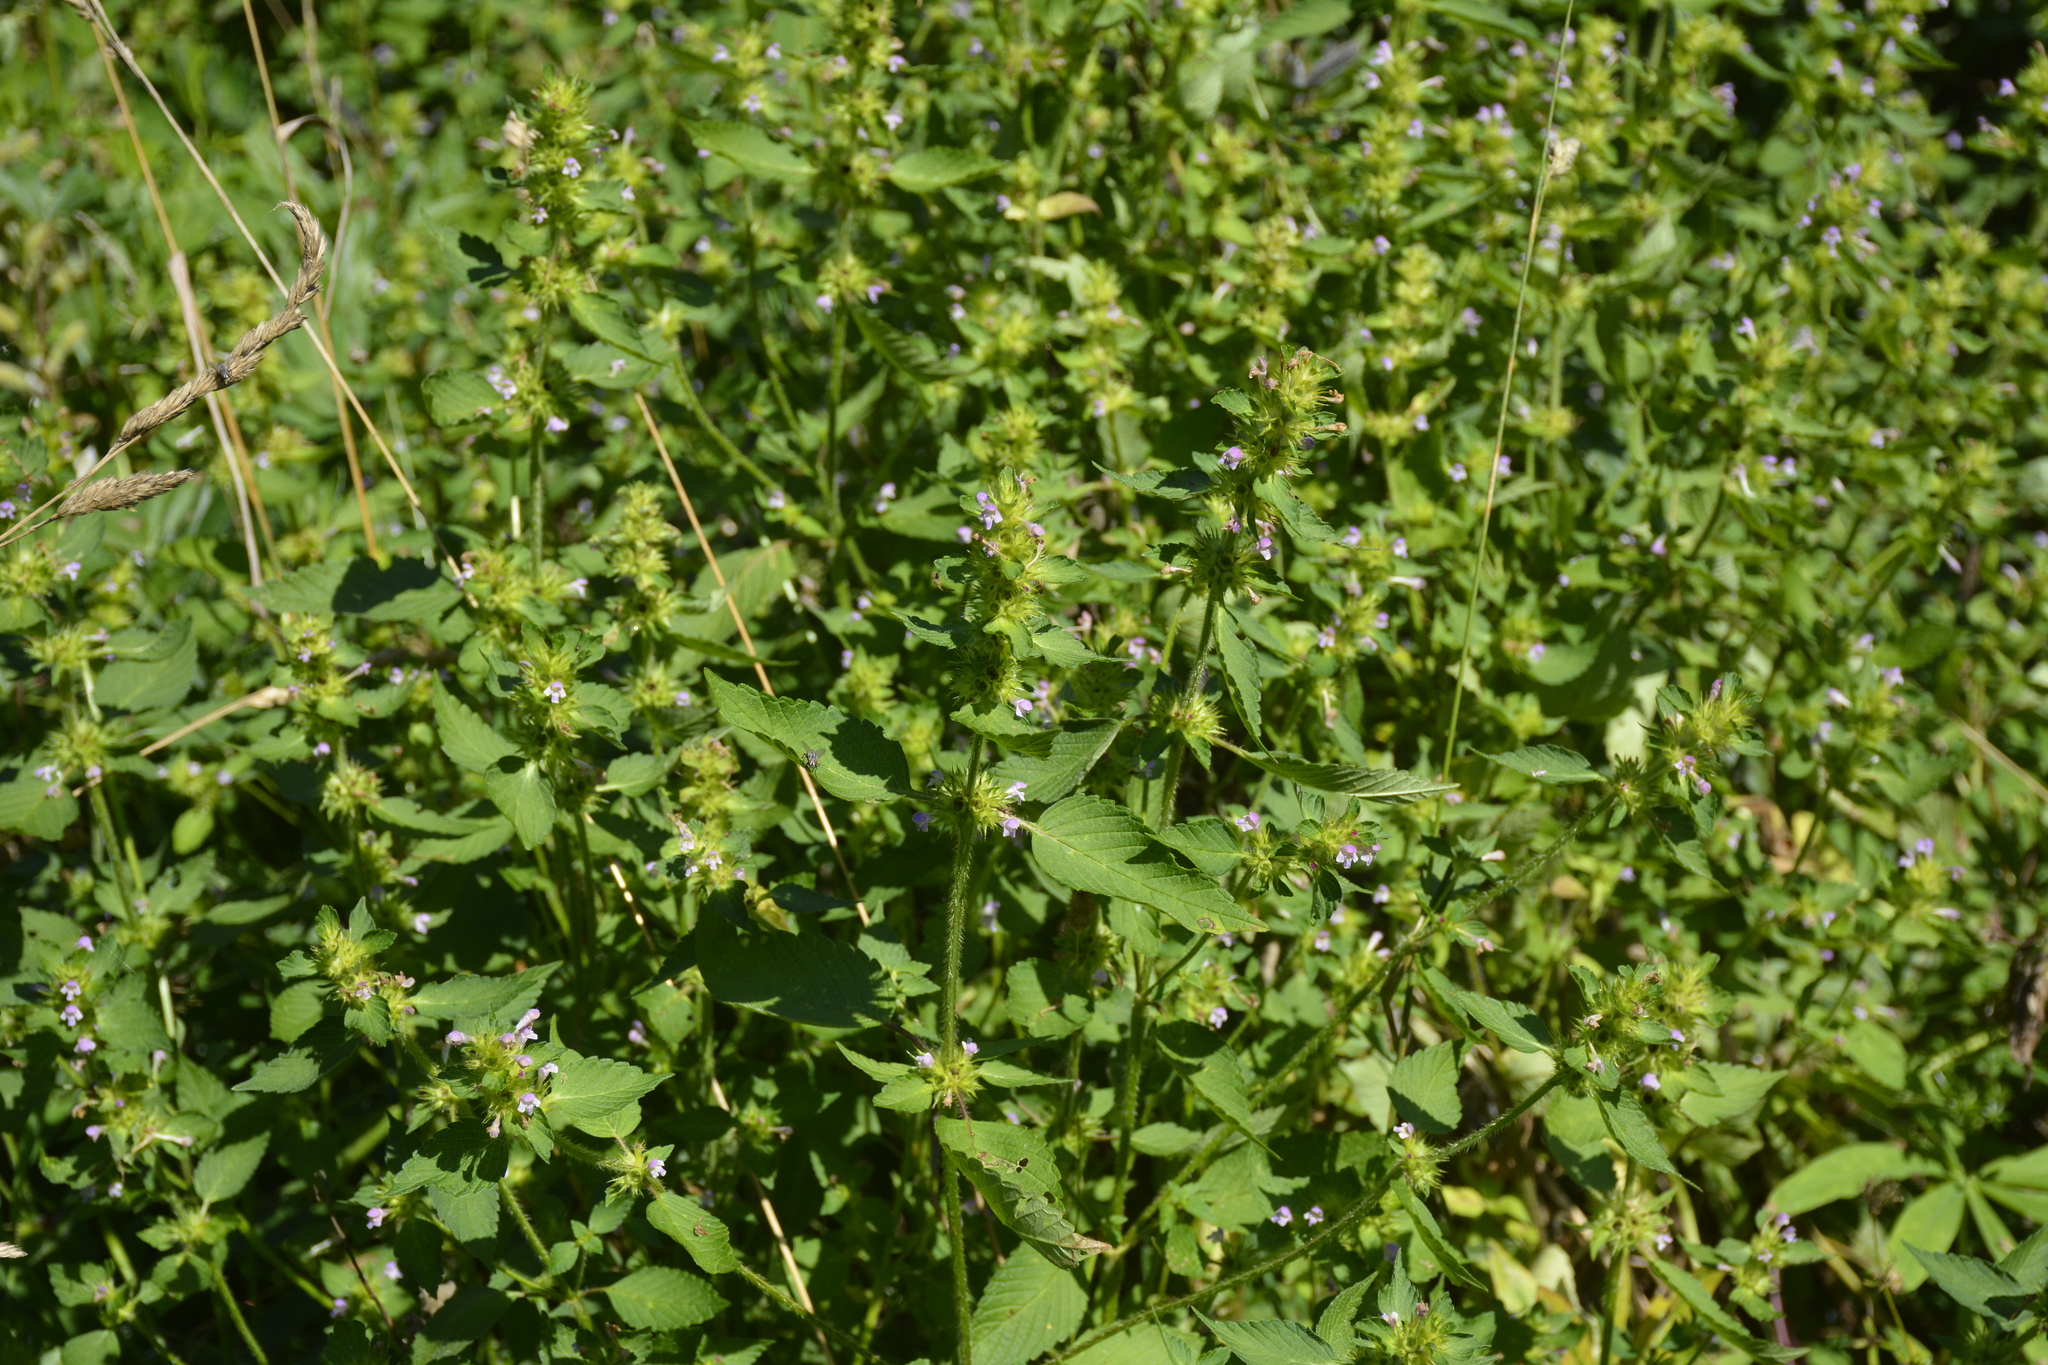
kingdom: Plantae
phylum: Tracheophyta
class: Magnoliopsida
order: Lamiales
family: Lamiaceae
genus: Galeopsis
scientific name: Galeopsis bifida
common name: Bifid hemp-nettle
